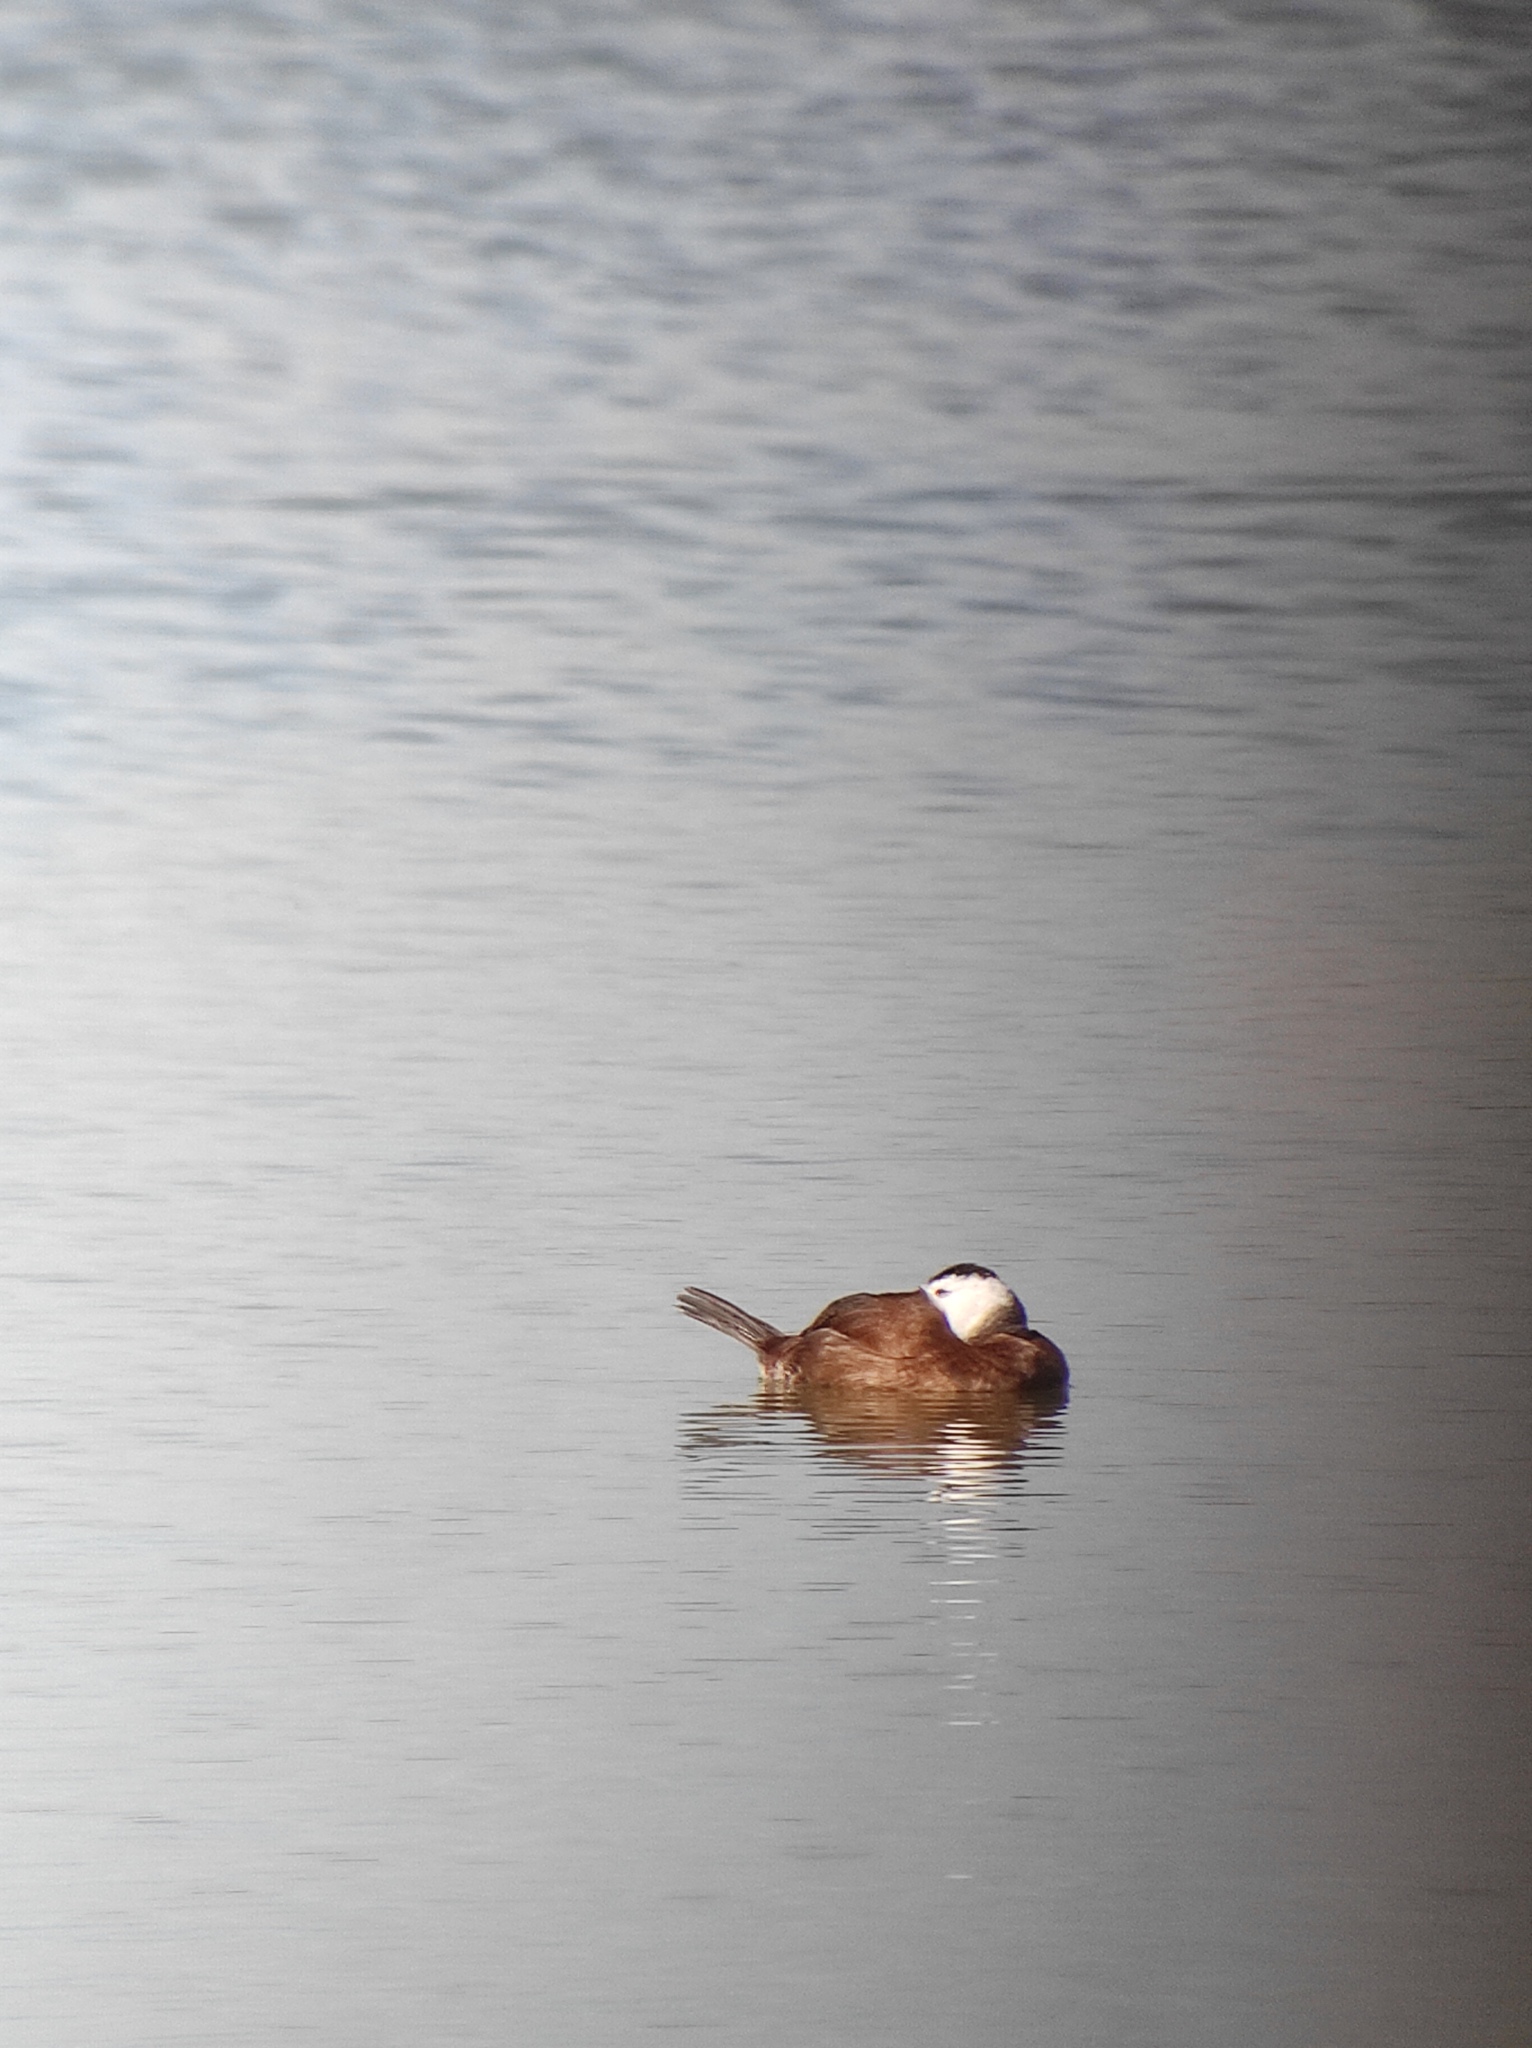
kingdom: Animalia
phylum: Chordata
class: Aves
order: Anseriformes
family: Anatidae
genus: Oxyura
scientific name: Oxyura leucocephala
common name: White-headed duck
